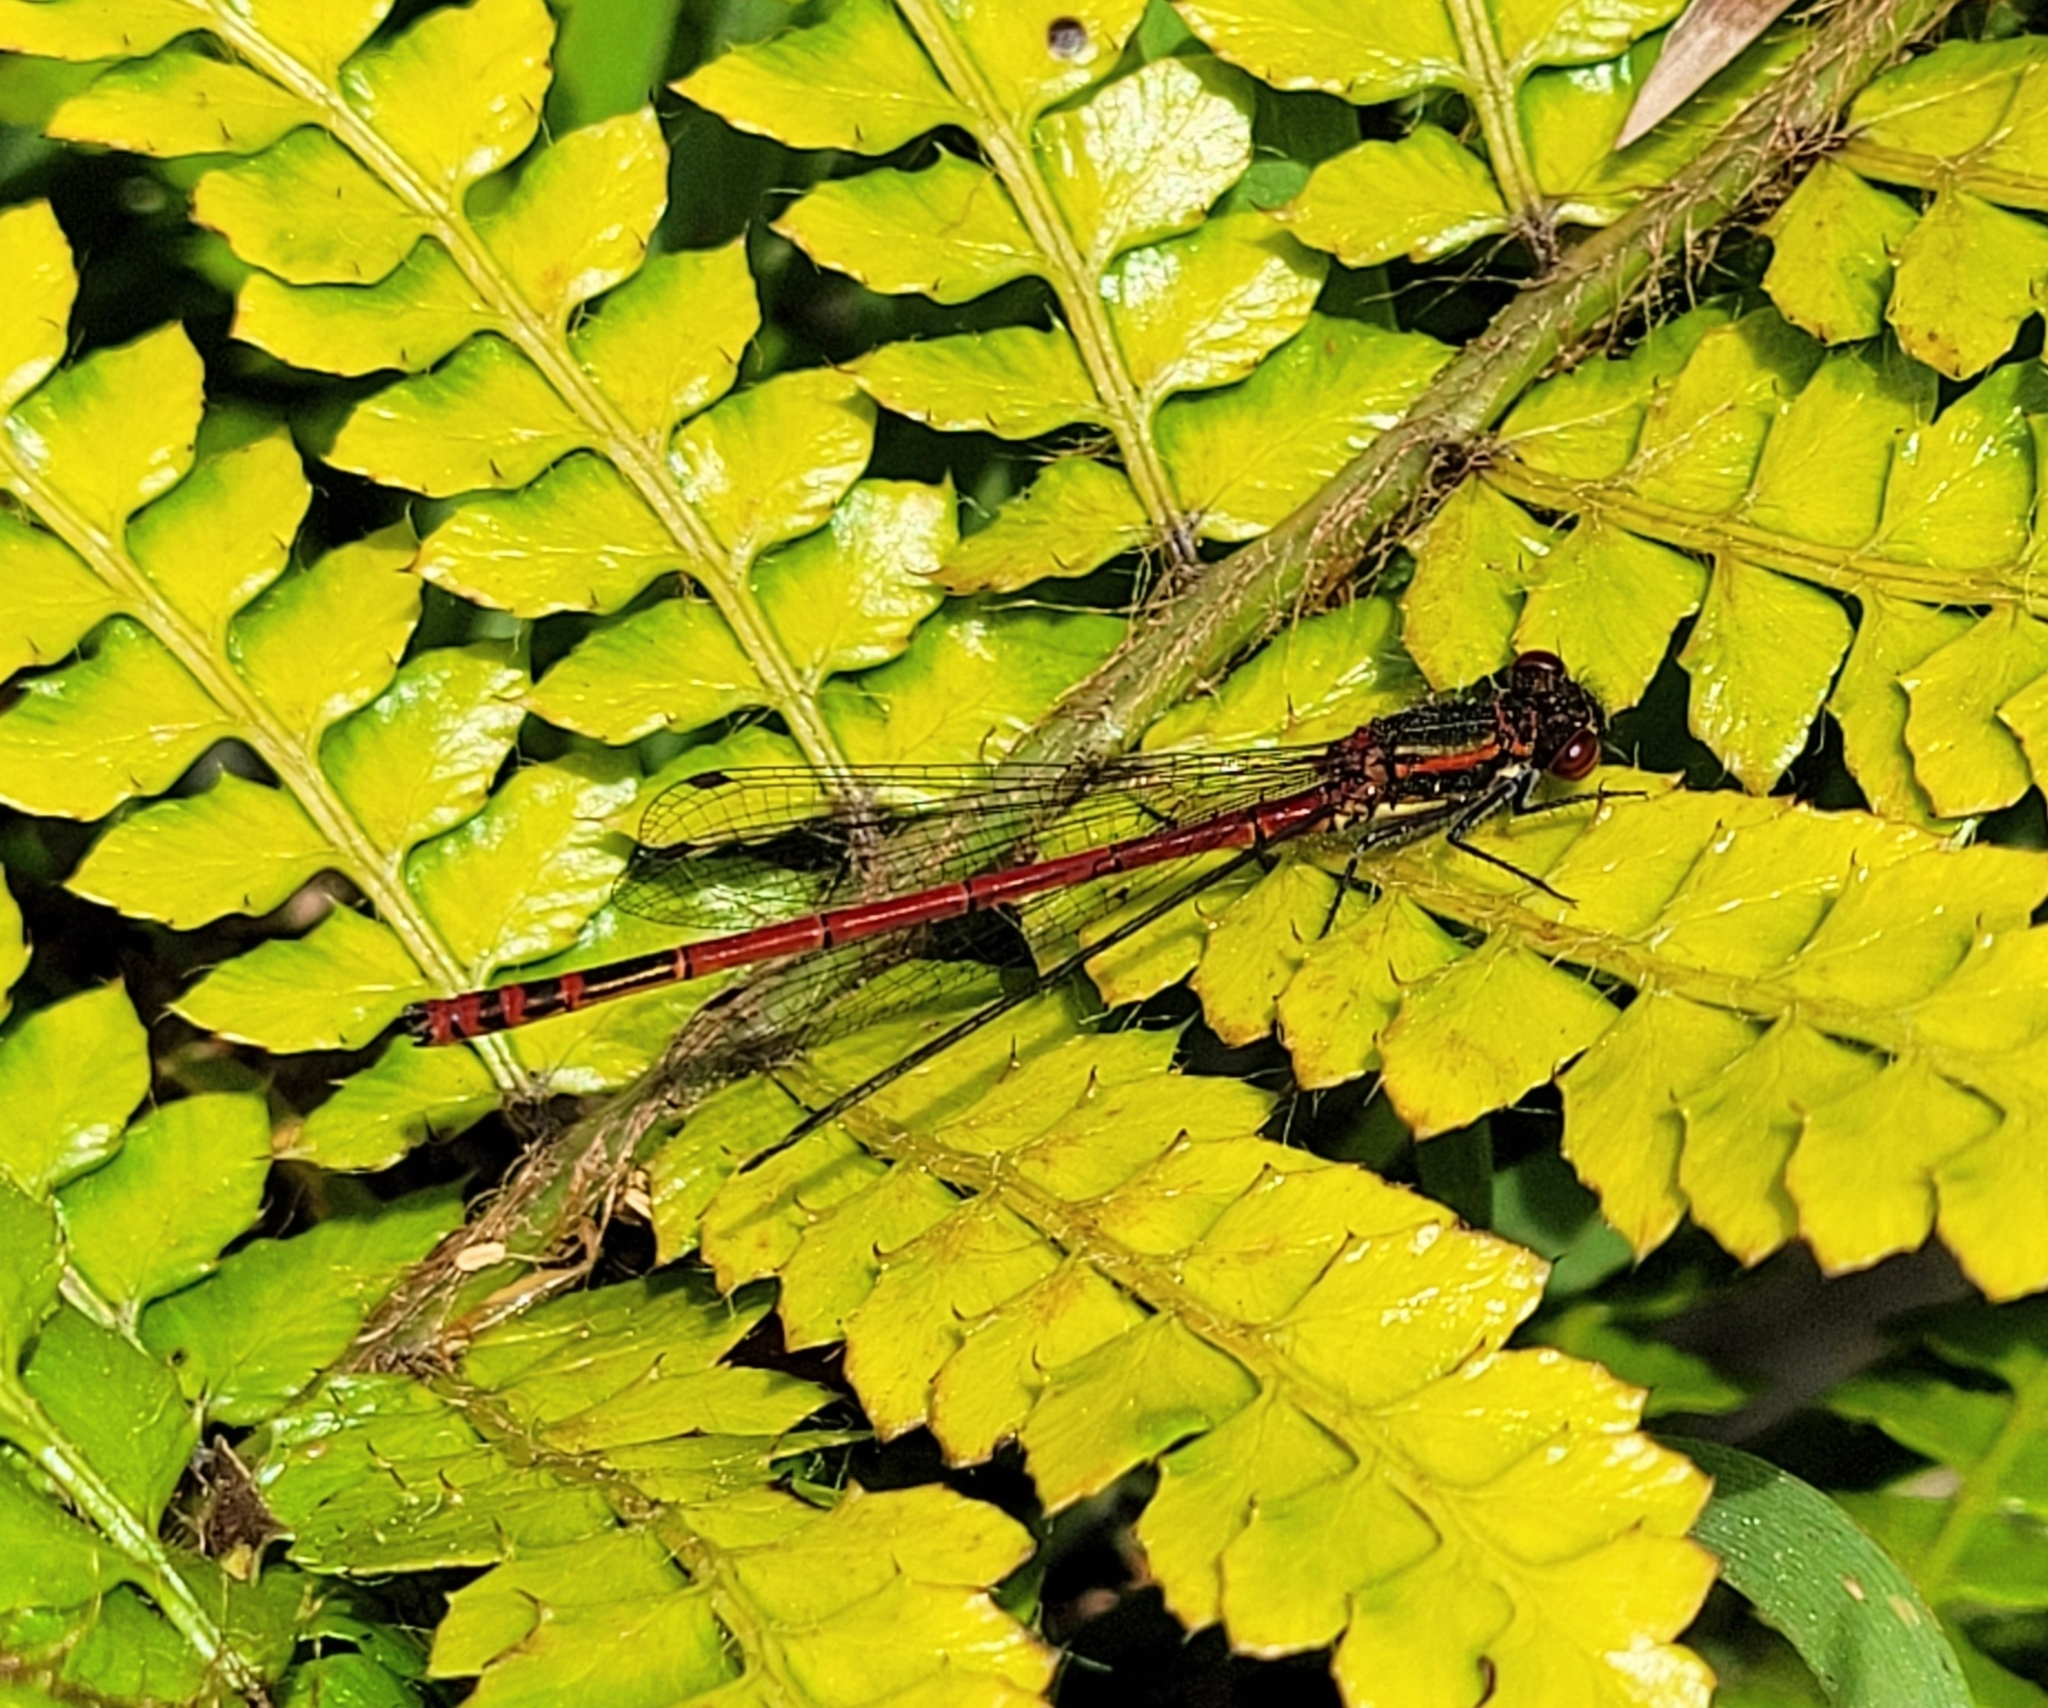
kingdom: Animalia
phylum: Arthropoda
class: Insecta
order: Odonata
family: Coenagrionidae
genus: Pyrrhosoma
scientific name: Pyrrhosoma nymphula
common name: Large red damsel
